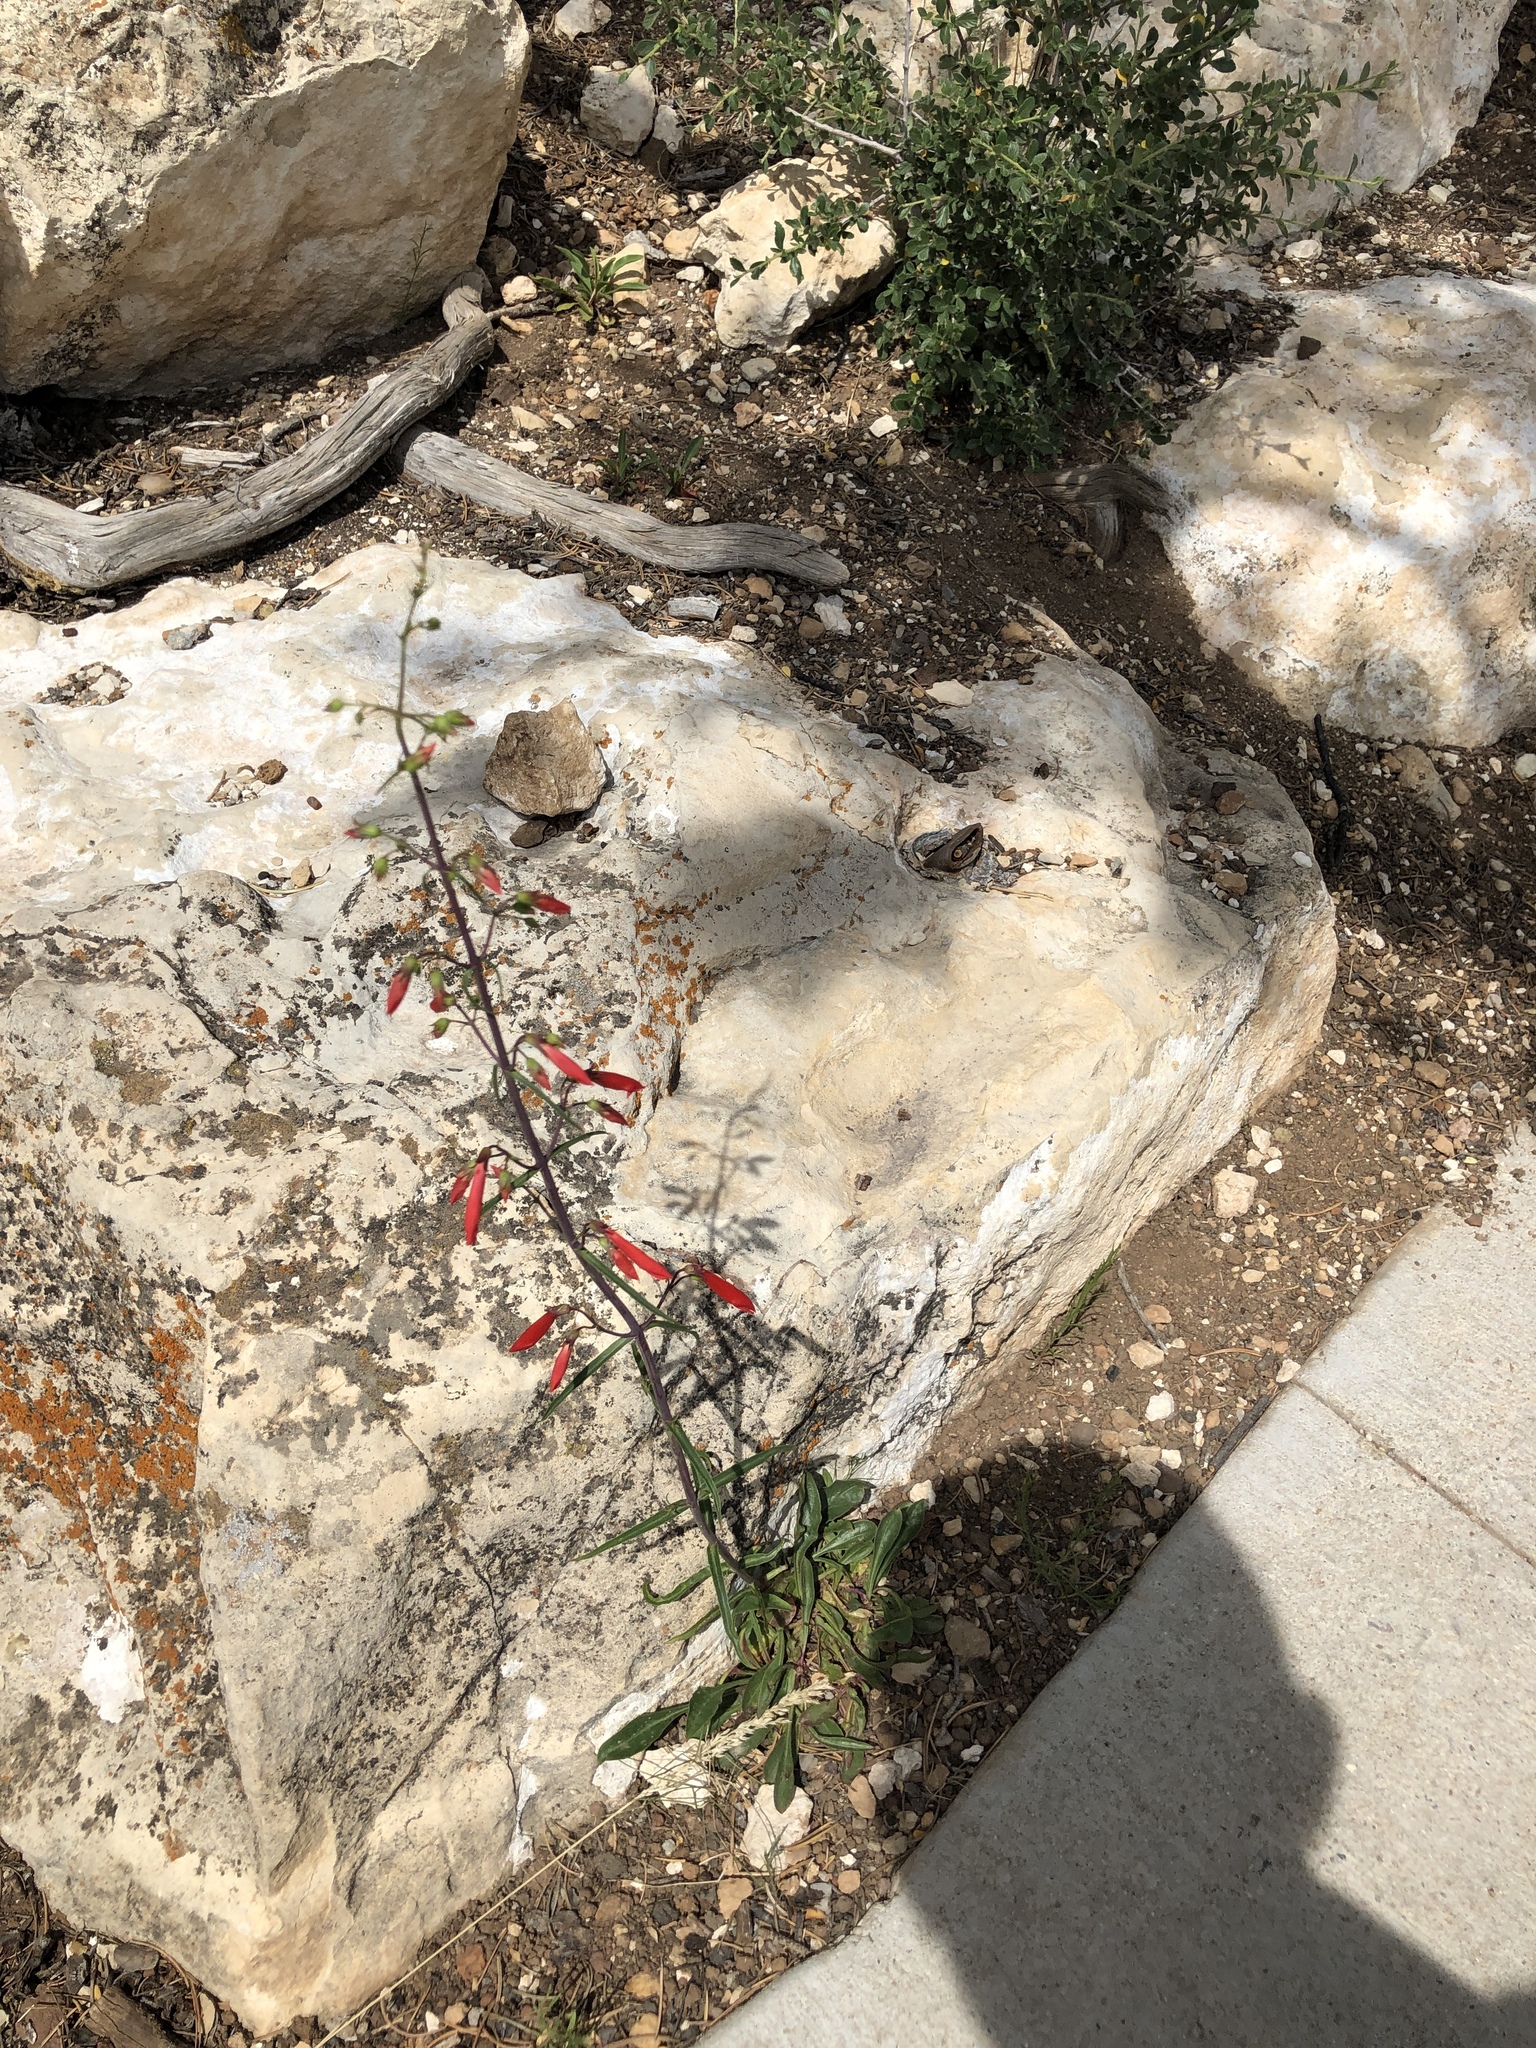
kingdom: Plantae
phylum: Tracheophyta
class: Magnoliopsida
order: Lamiales
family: Plantaginaceae
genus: Penstemon
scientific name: Penstemon barbatus
